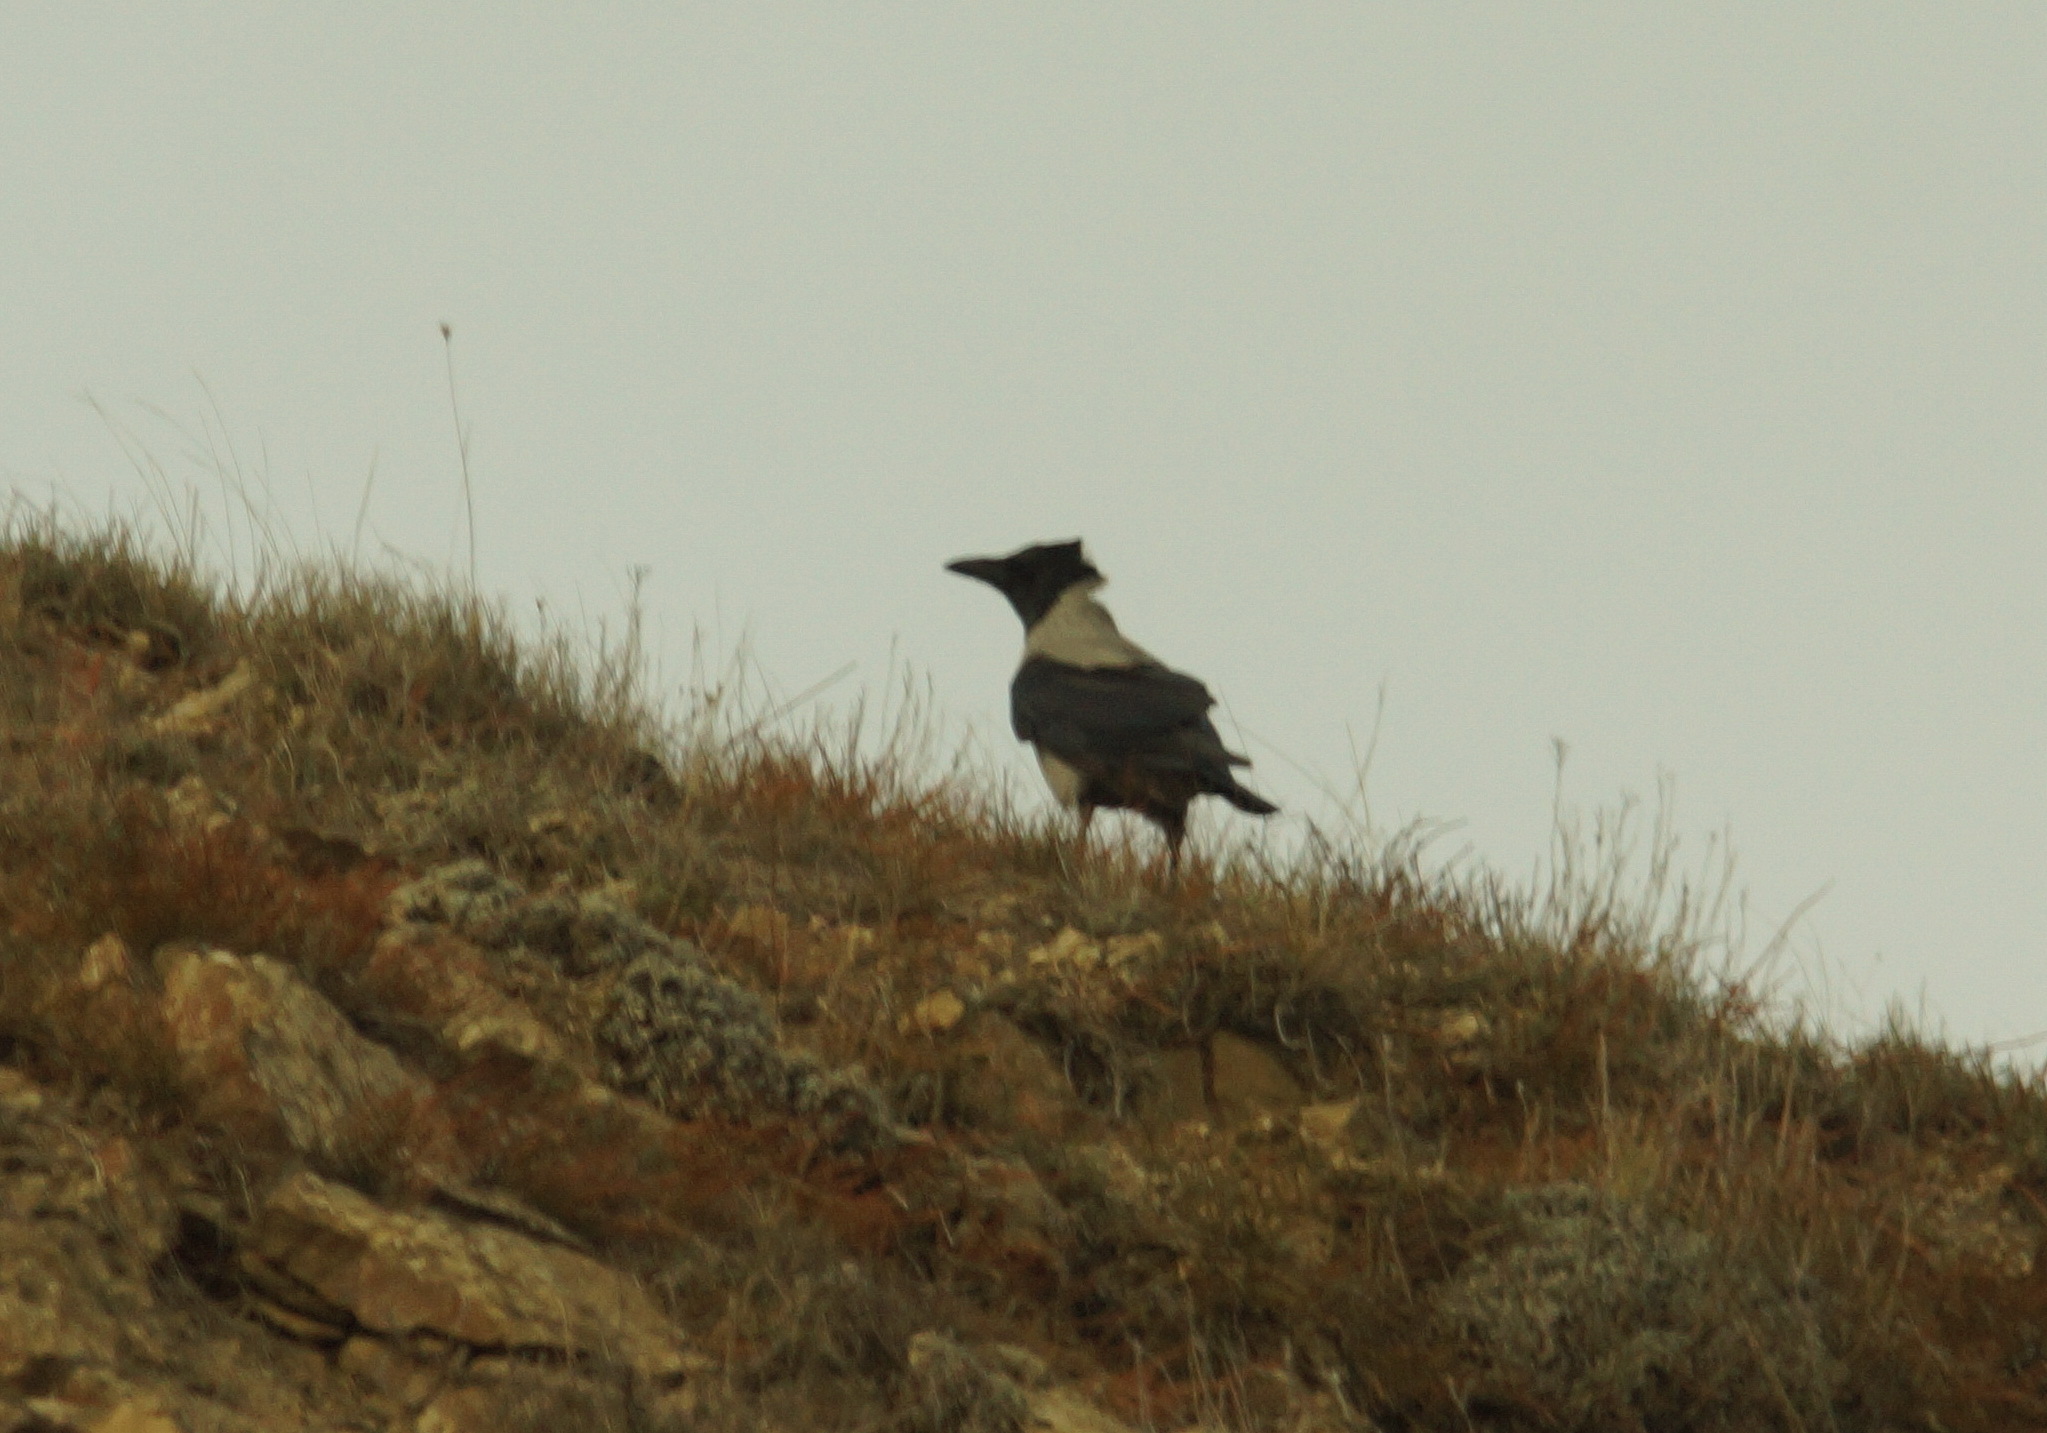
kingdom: Animalia
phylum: Chordata
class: Aves
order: Passeriformes
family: Corvidae
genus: Corvus
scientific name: Corvus cornix
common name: Hooded crow
